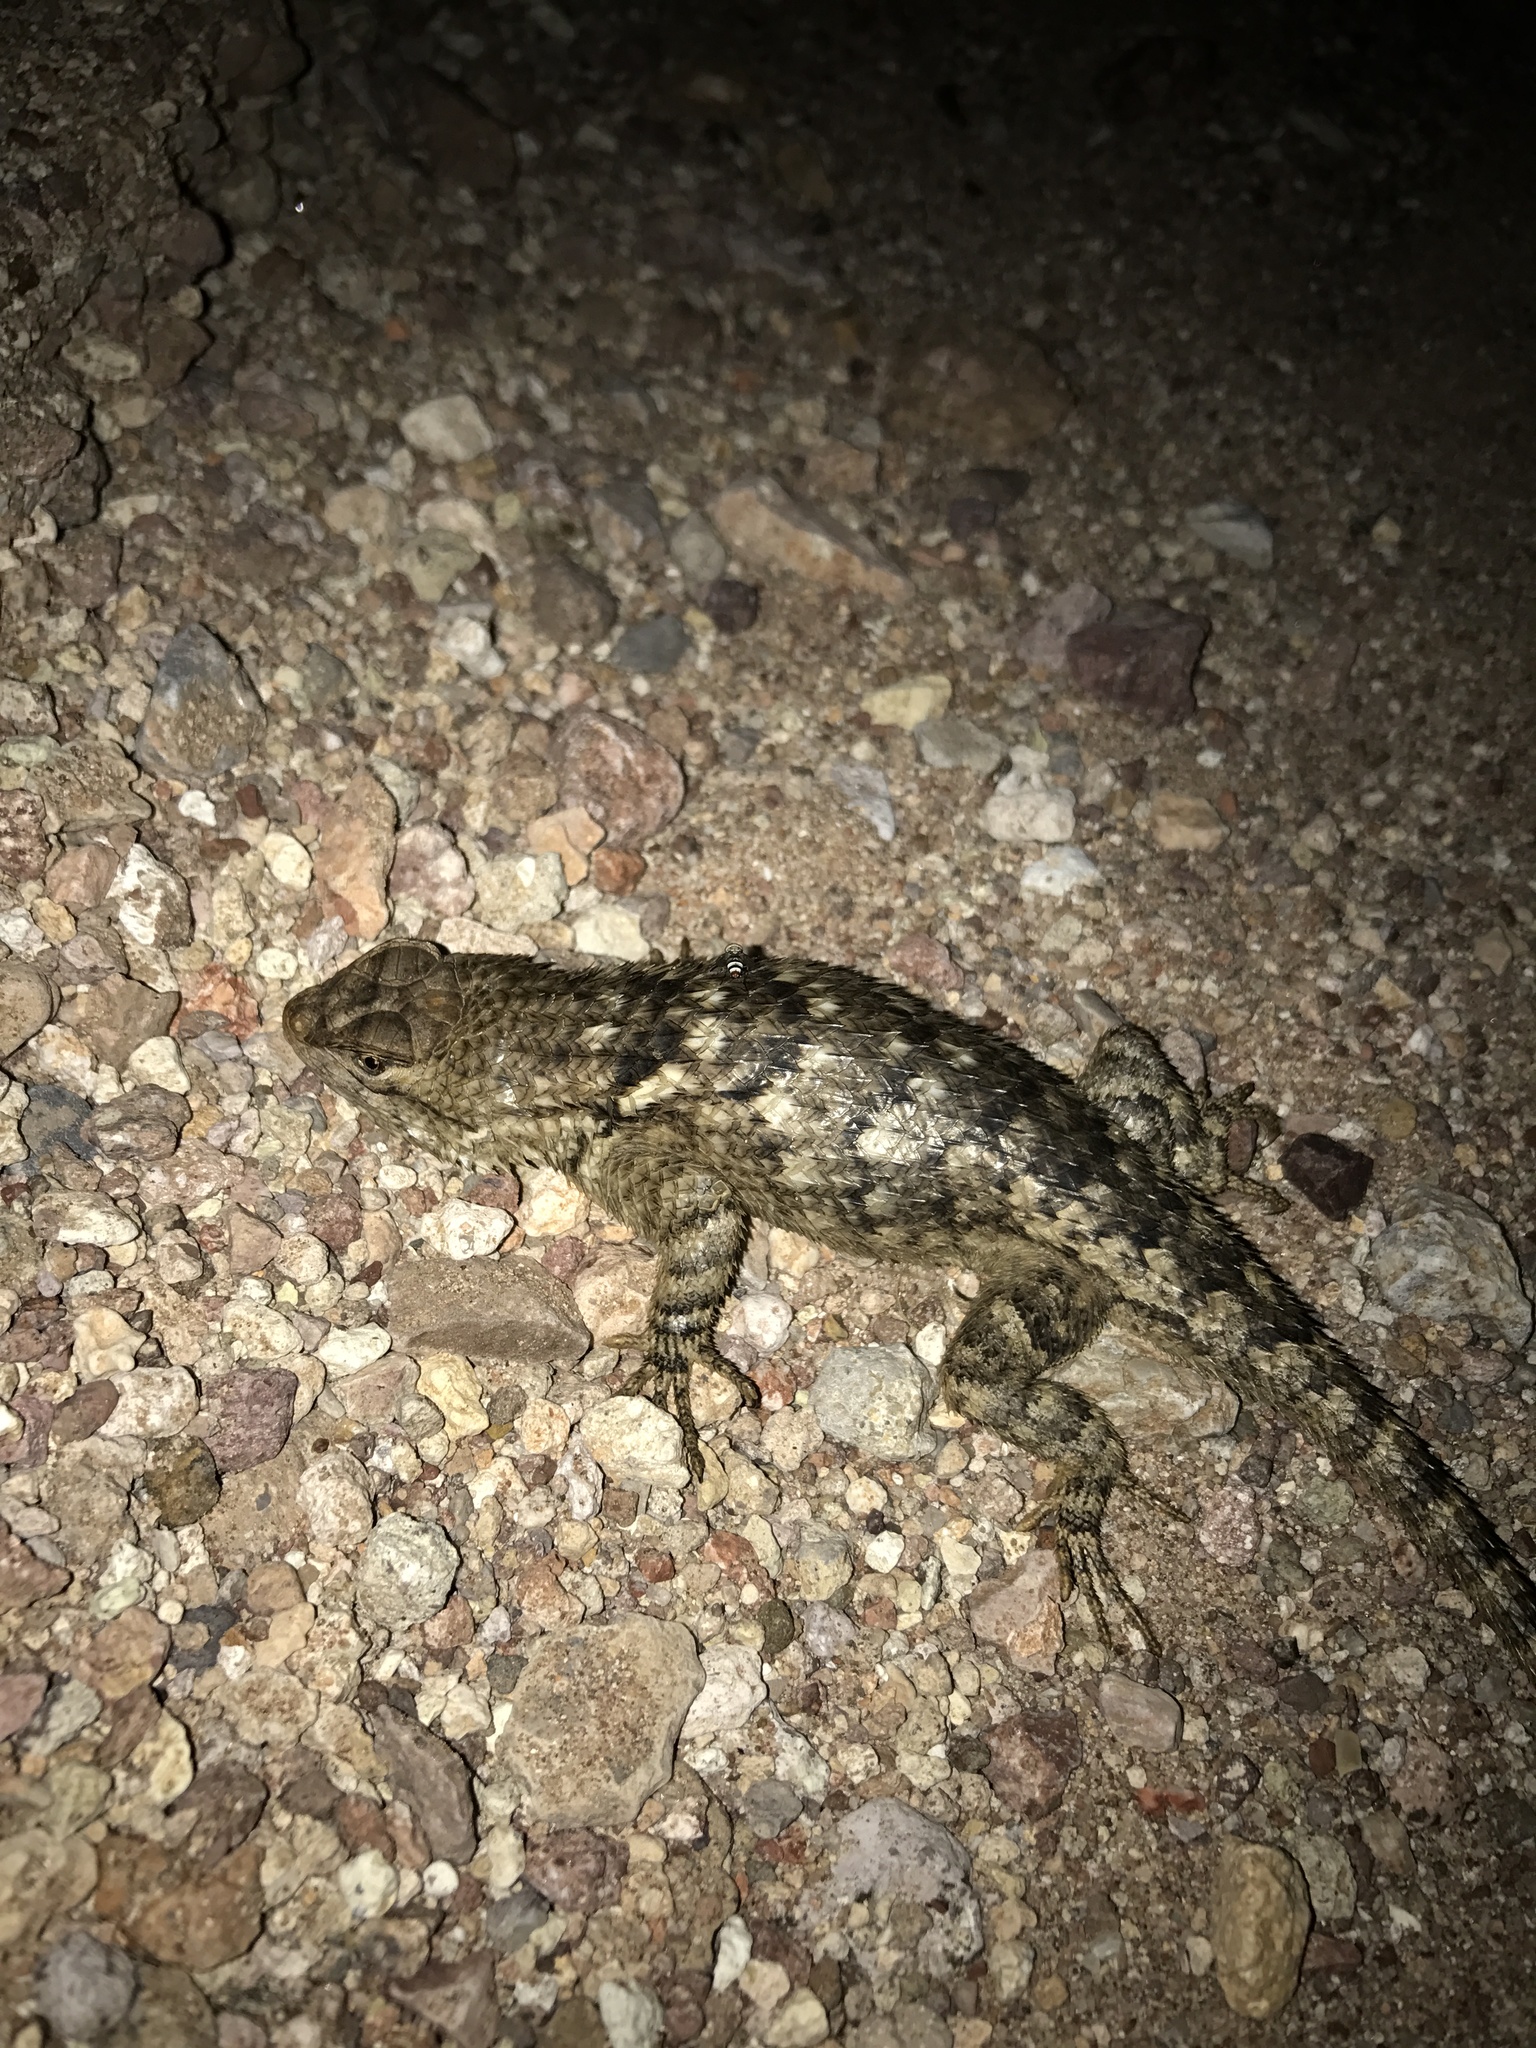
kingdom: Animalia
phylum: Chordata
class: Squamata
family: Phrynosomatidae
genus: Sceloporus
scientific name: Sceloporus clarkii
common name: Clark's spiny lizard
